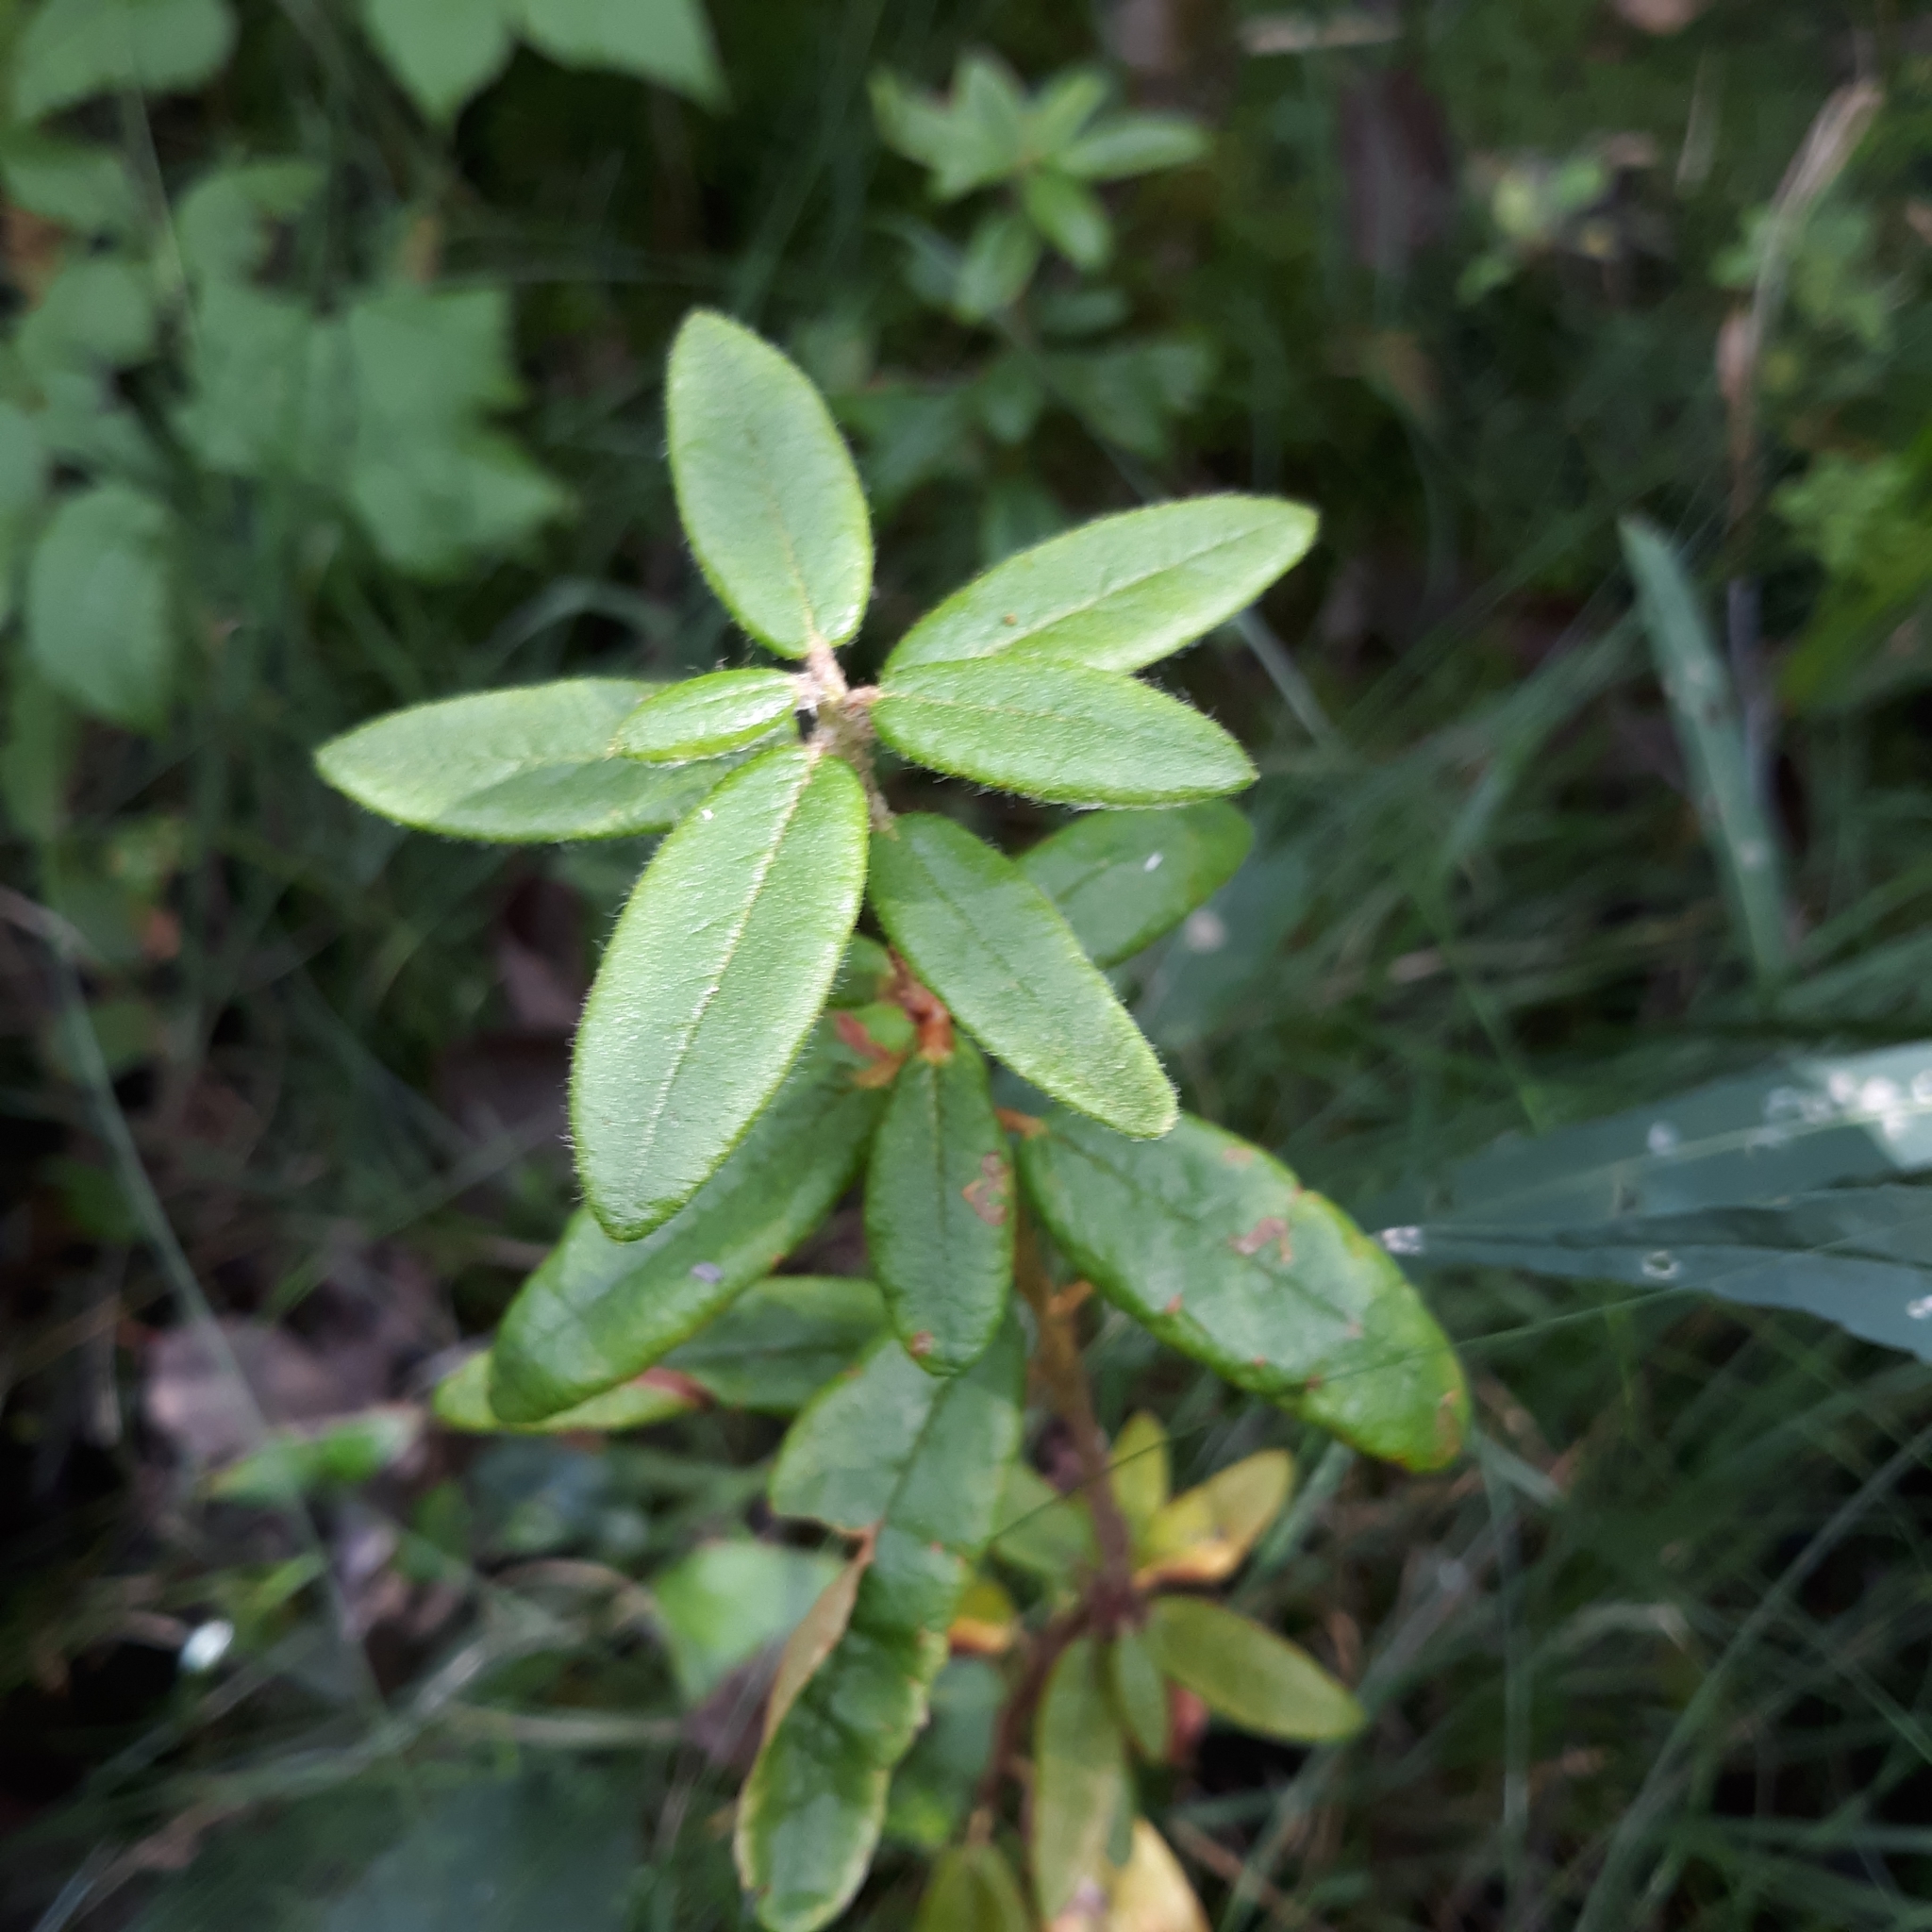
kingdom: Plantae
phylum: Tracheophyta
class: Magnoliopsida
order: Ericales
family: Ericaceae
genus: Rhododendron
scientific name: Rhododendron groenlandicum
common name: Bog labrador tea
